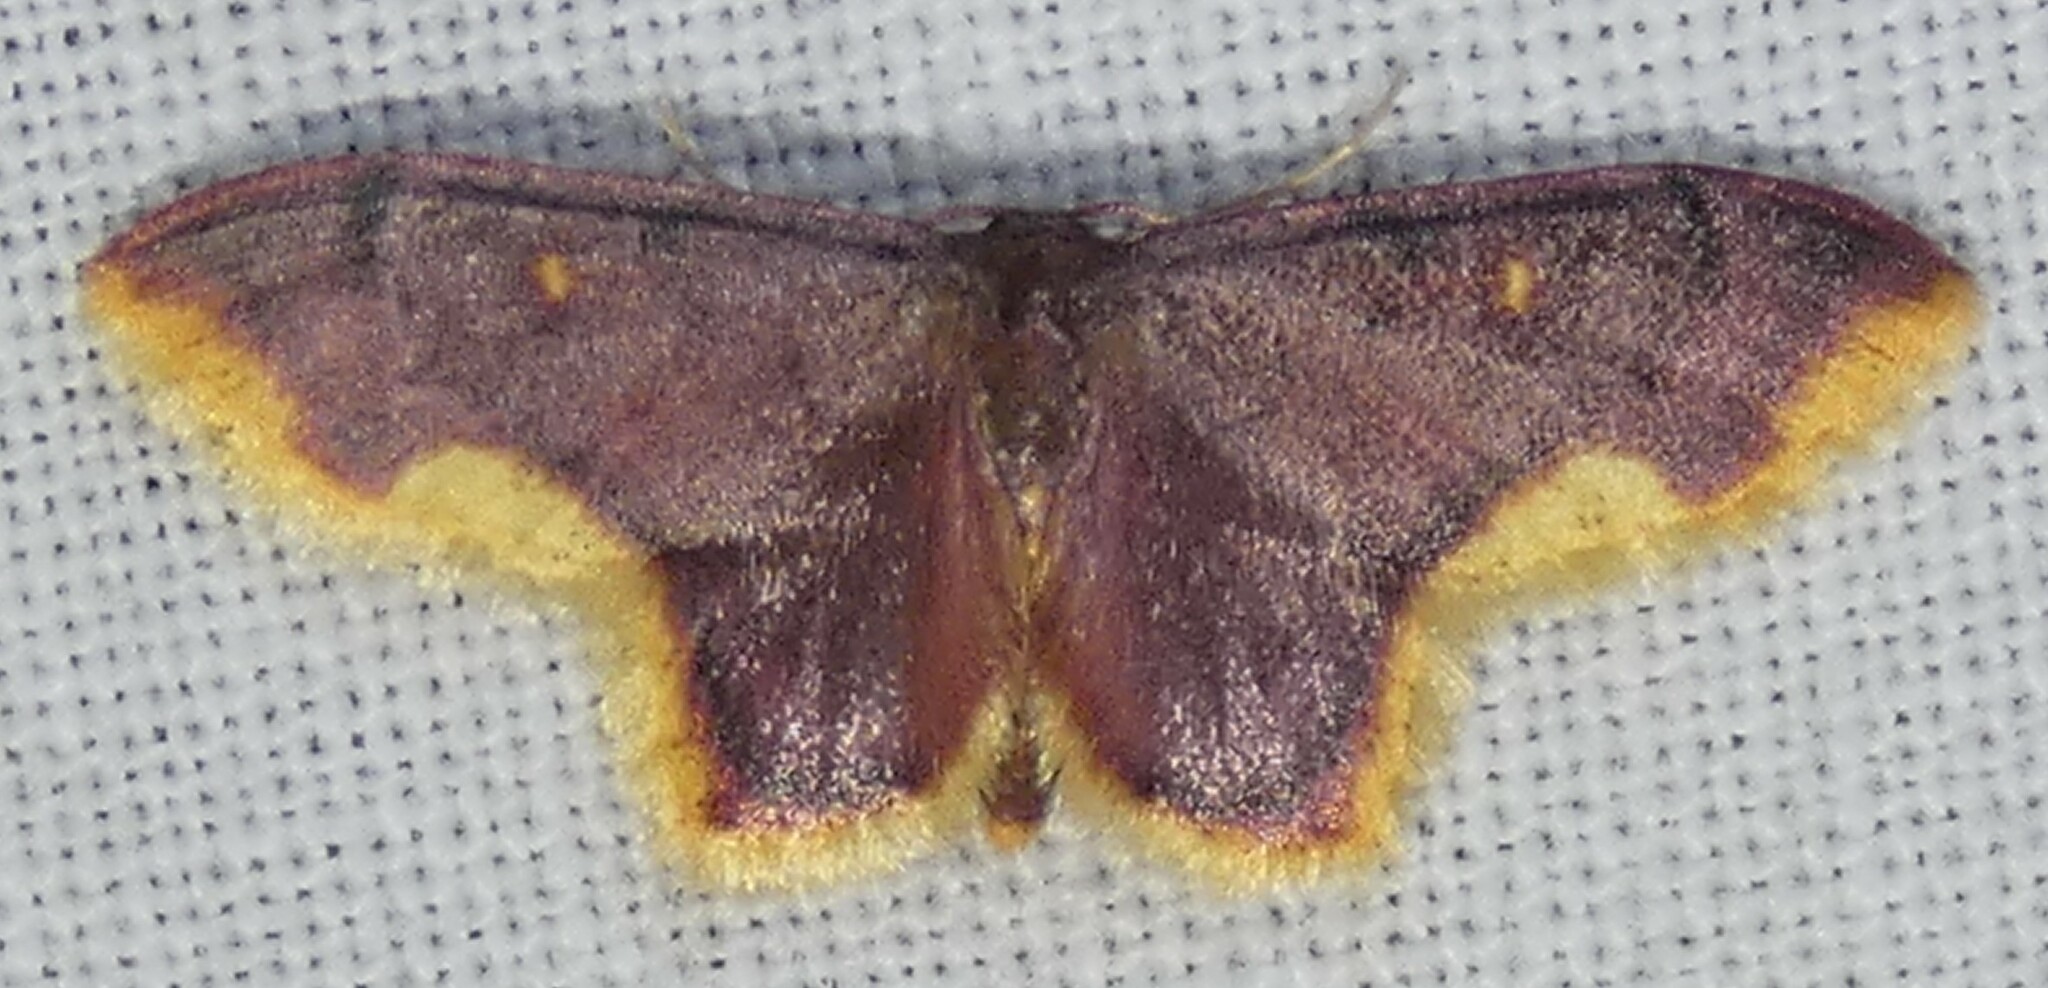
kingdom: Animalia
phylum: Arthropoda
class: Insecta
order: Lepidoptera
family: Geometridae
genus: Lophosis
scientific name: Lophosis labeculata
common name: Stained lophosis moth
